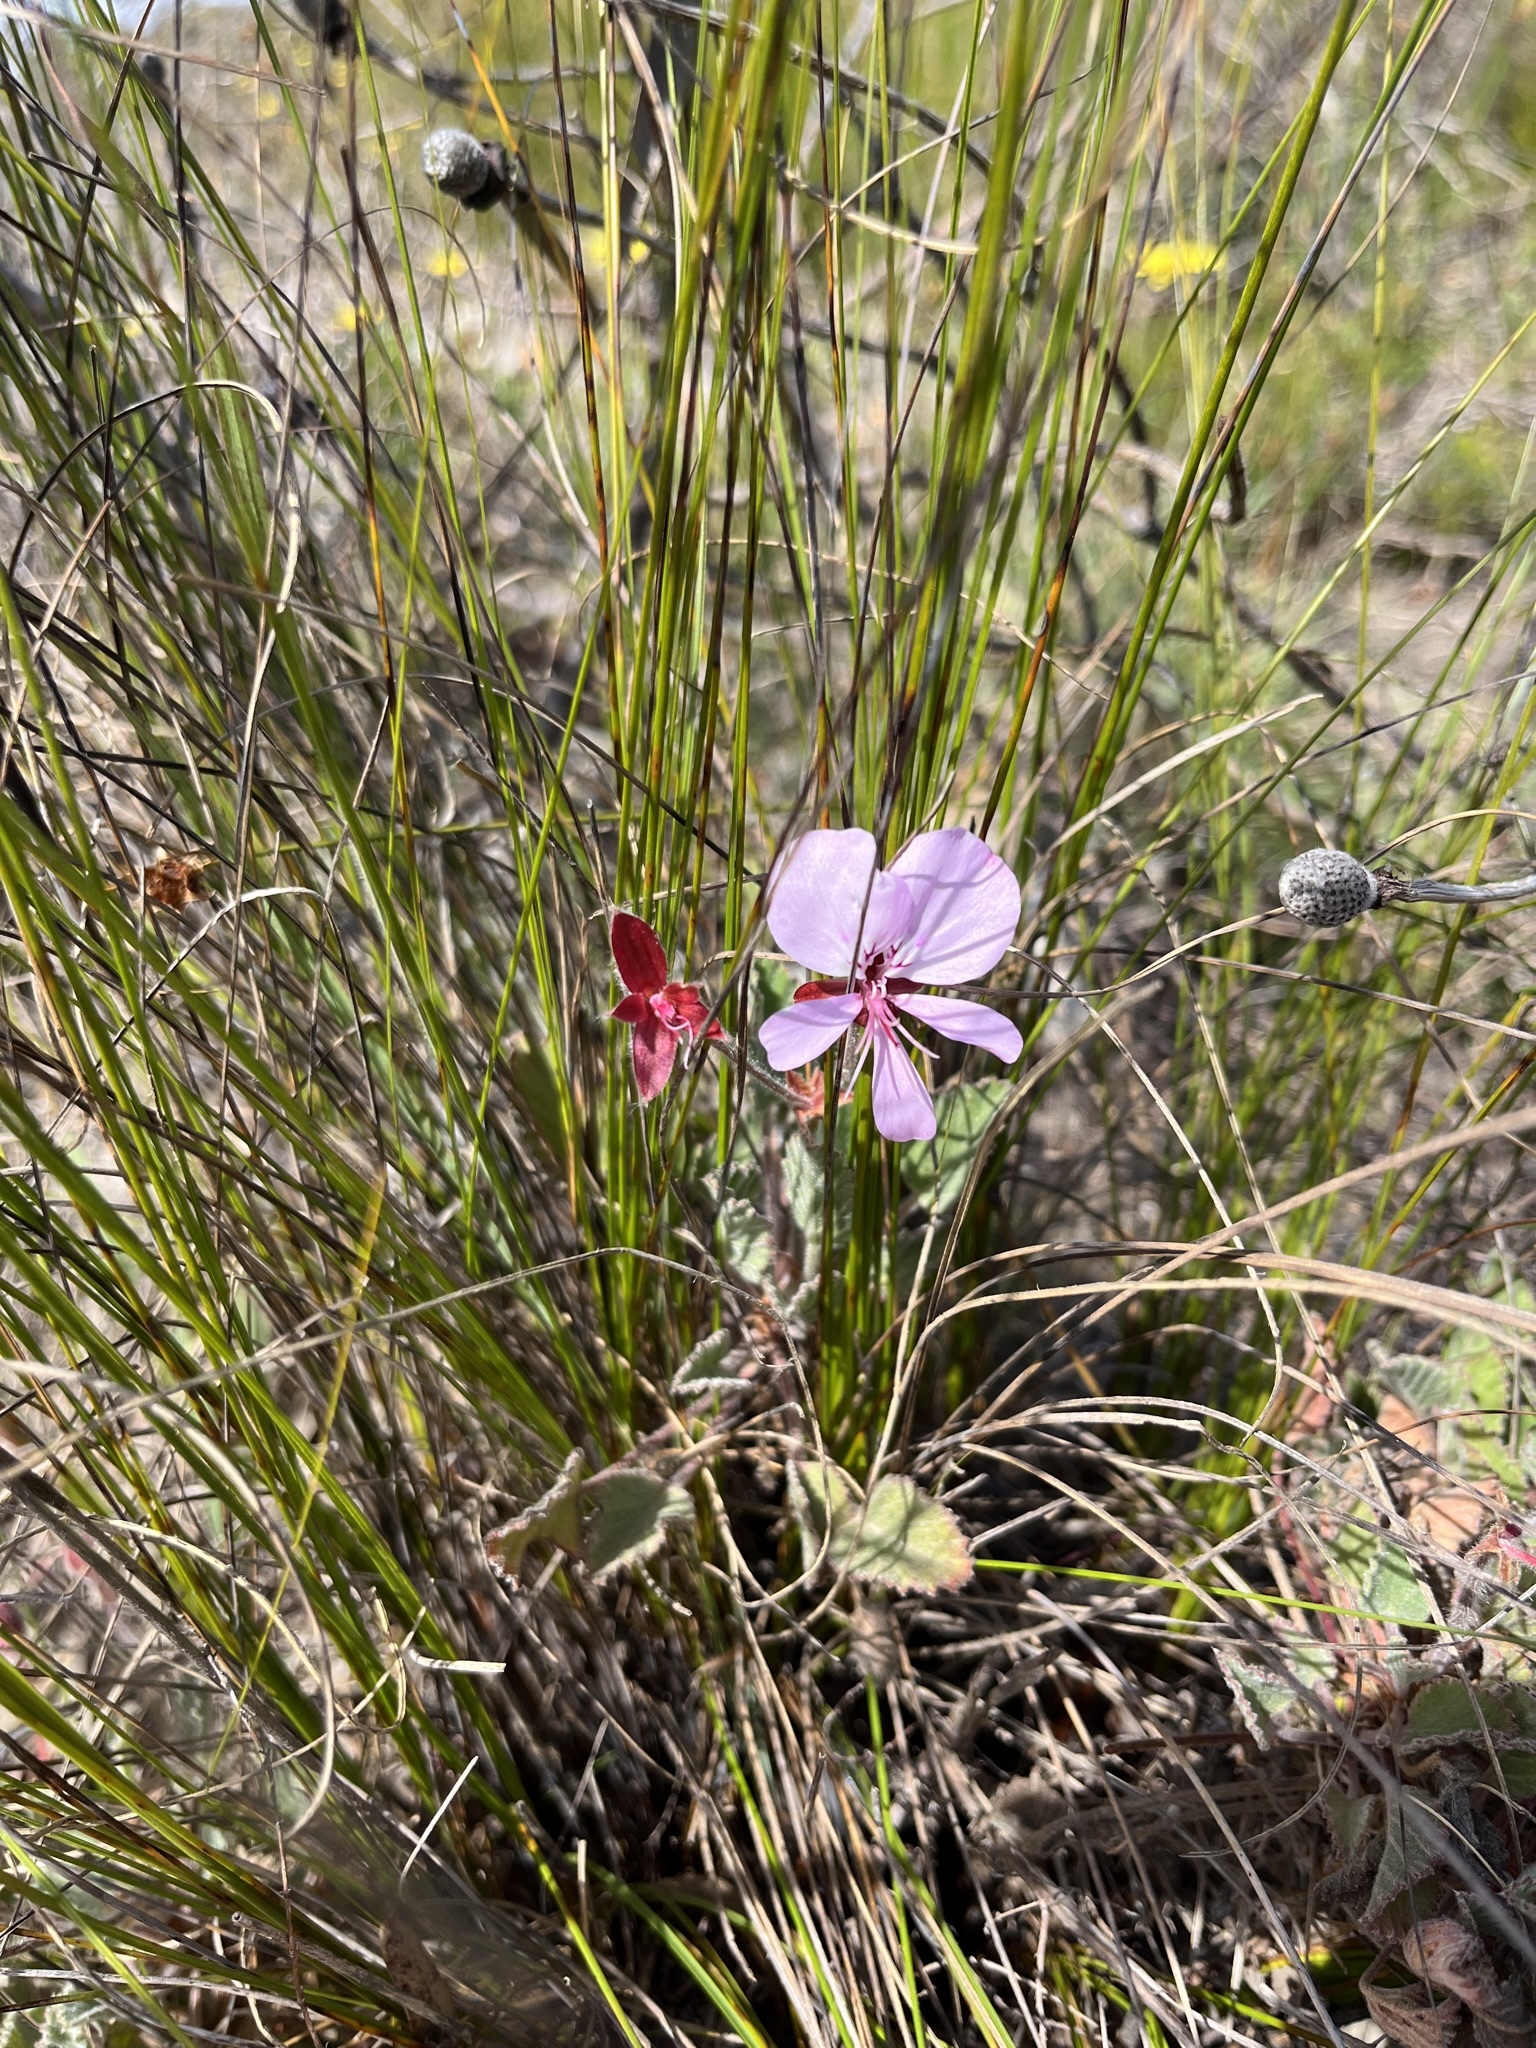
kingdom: Plantae
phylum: Tracheophyta
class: Magnoliopsida
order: Geraniales
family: Geraniaceae
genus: Pelargonium
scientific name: Pelargonium ovale
